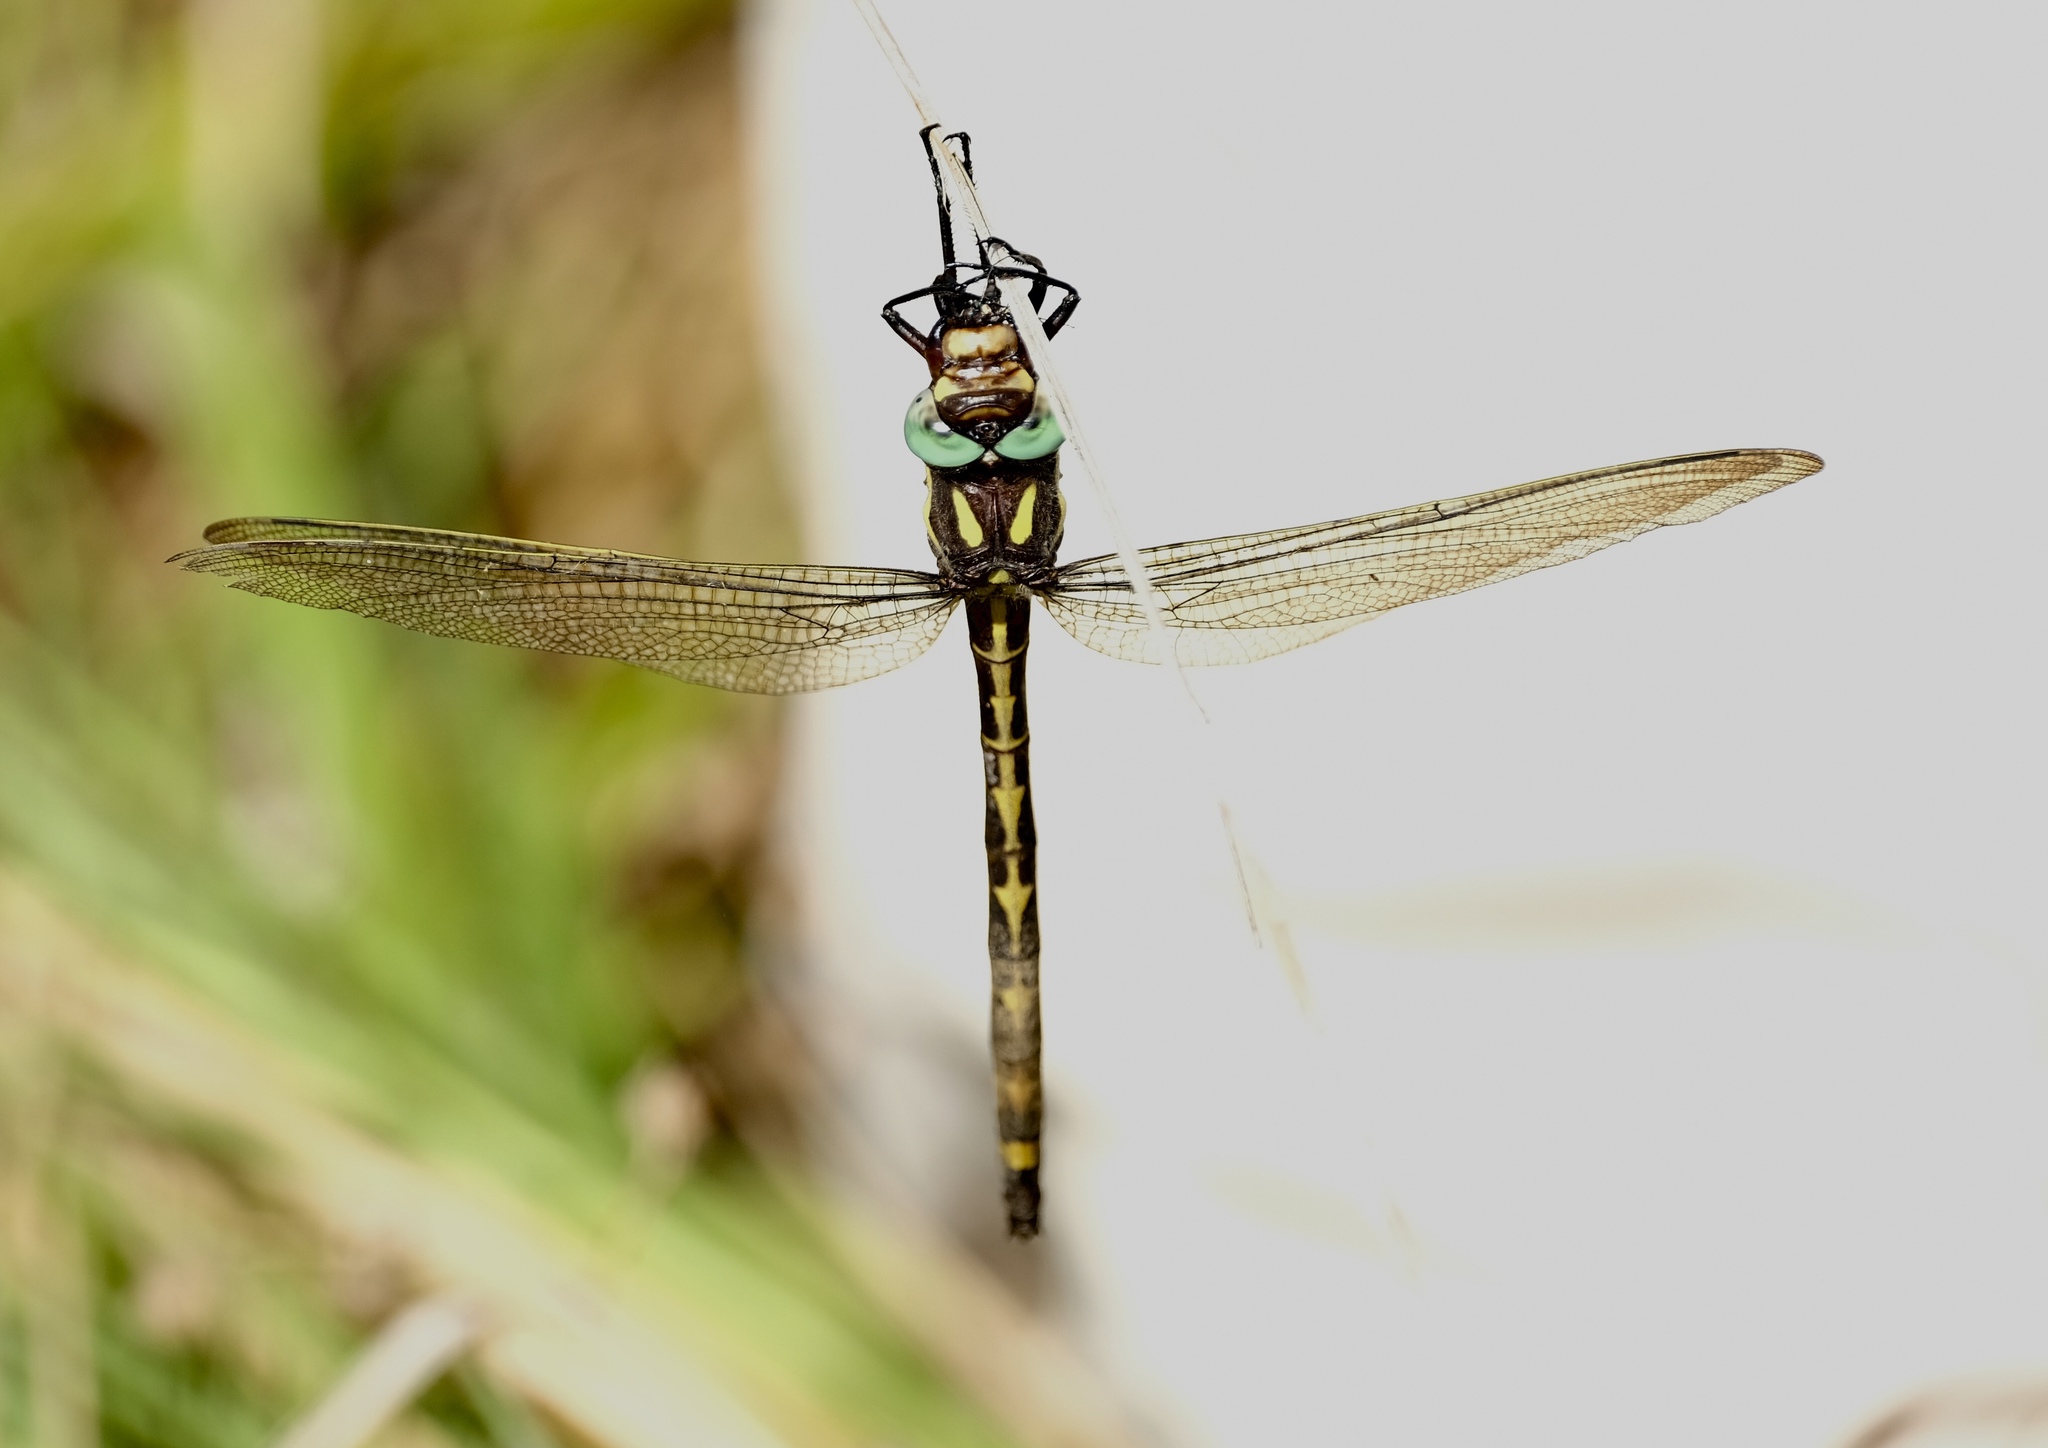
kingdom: Animalia
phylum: Arthropoda
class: Insecta
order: Odonata
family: Cordulegastridae
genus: Cordulegaster
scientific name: Cordulegaster obliqua
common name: Arrowhead spiketail
